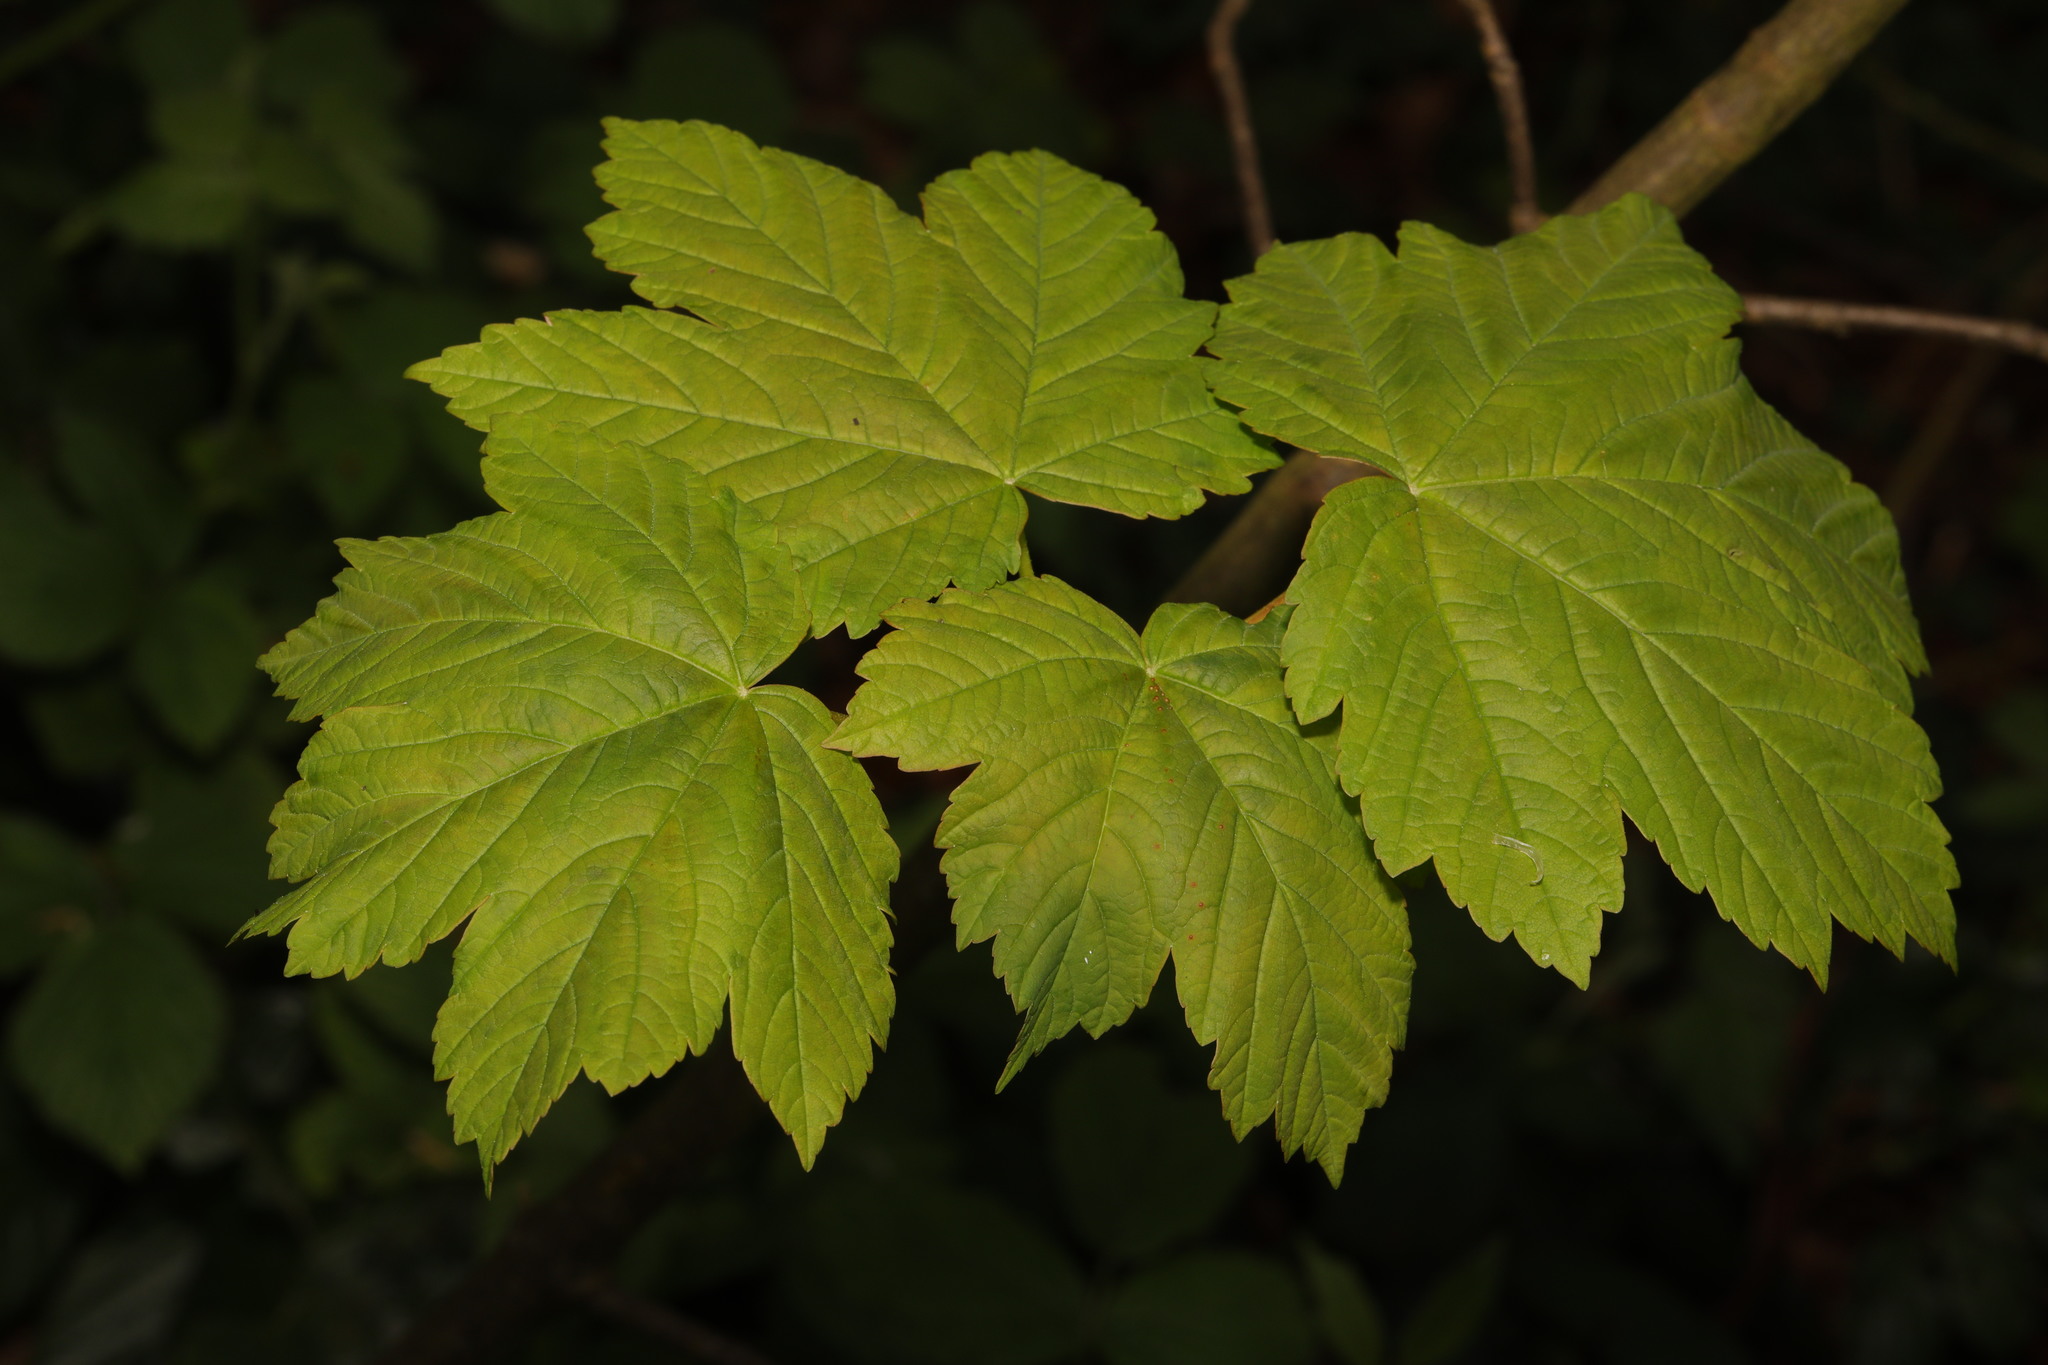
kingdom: Plantae
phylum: Tracheophyta
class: Magnoliopsida
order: Sapindales
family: Sapindaceae
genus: Acer
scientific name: Acer pseudoplatanus
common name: Sycamore
